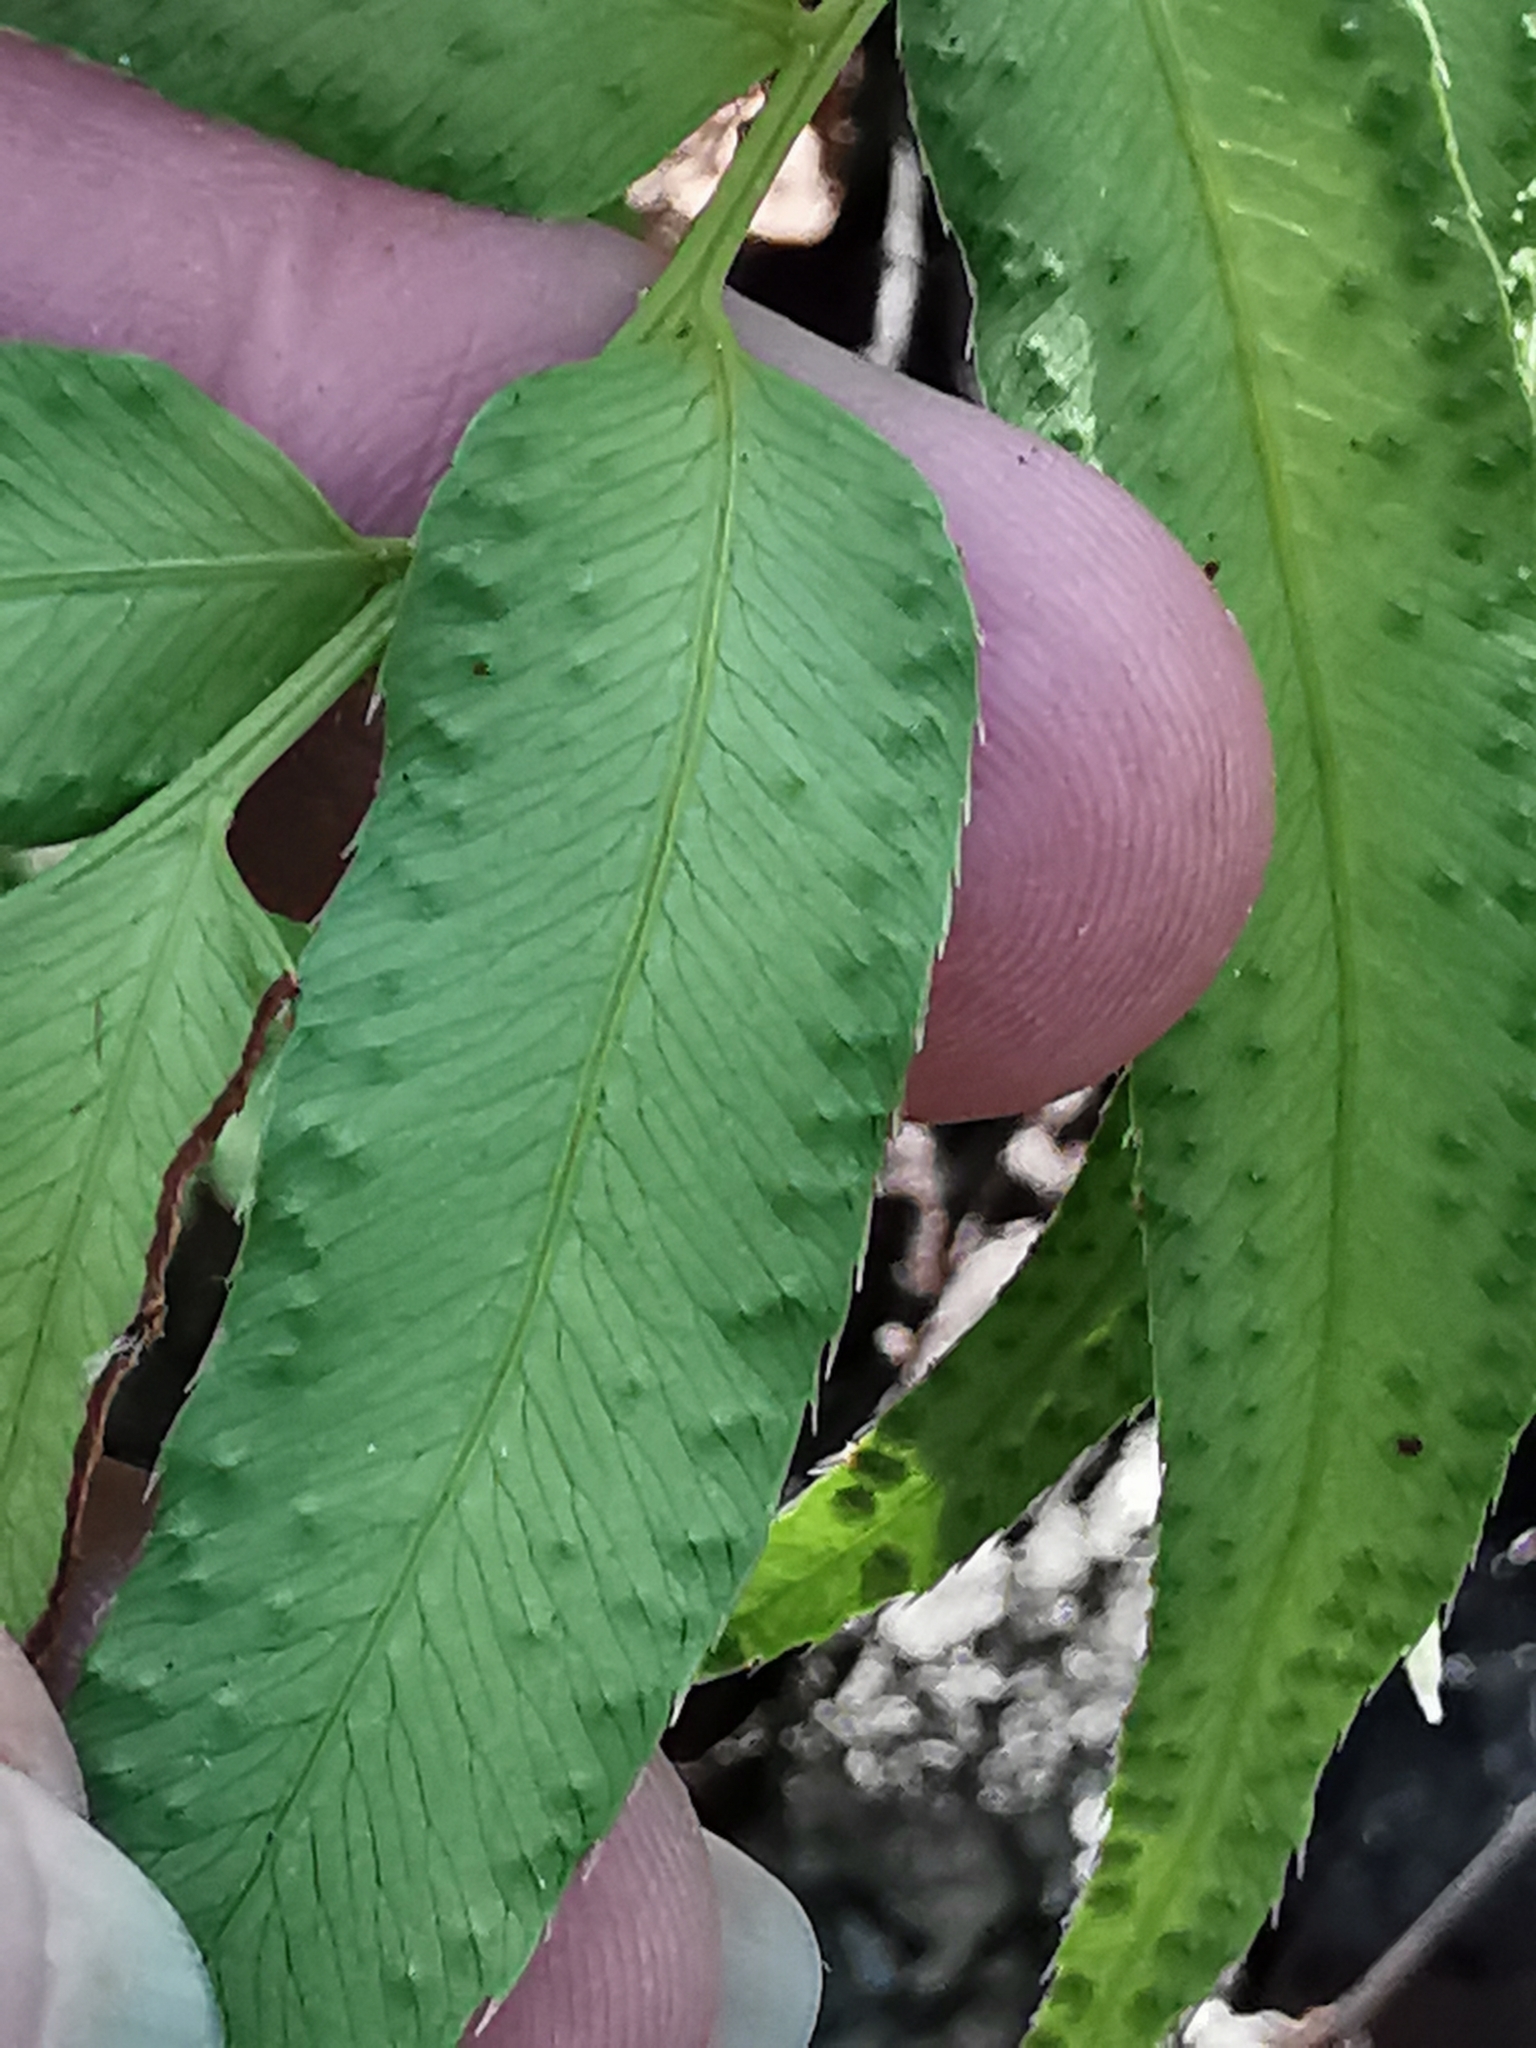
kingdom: Plantae
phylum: Tracheophyta
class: Polypodiopsida
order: Polypodiales
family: Dryopteridaceae
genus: Phanerophlebia
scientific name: Phanerophlebia umbonata
